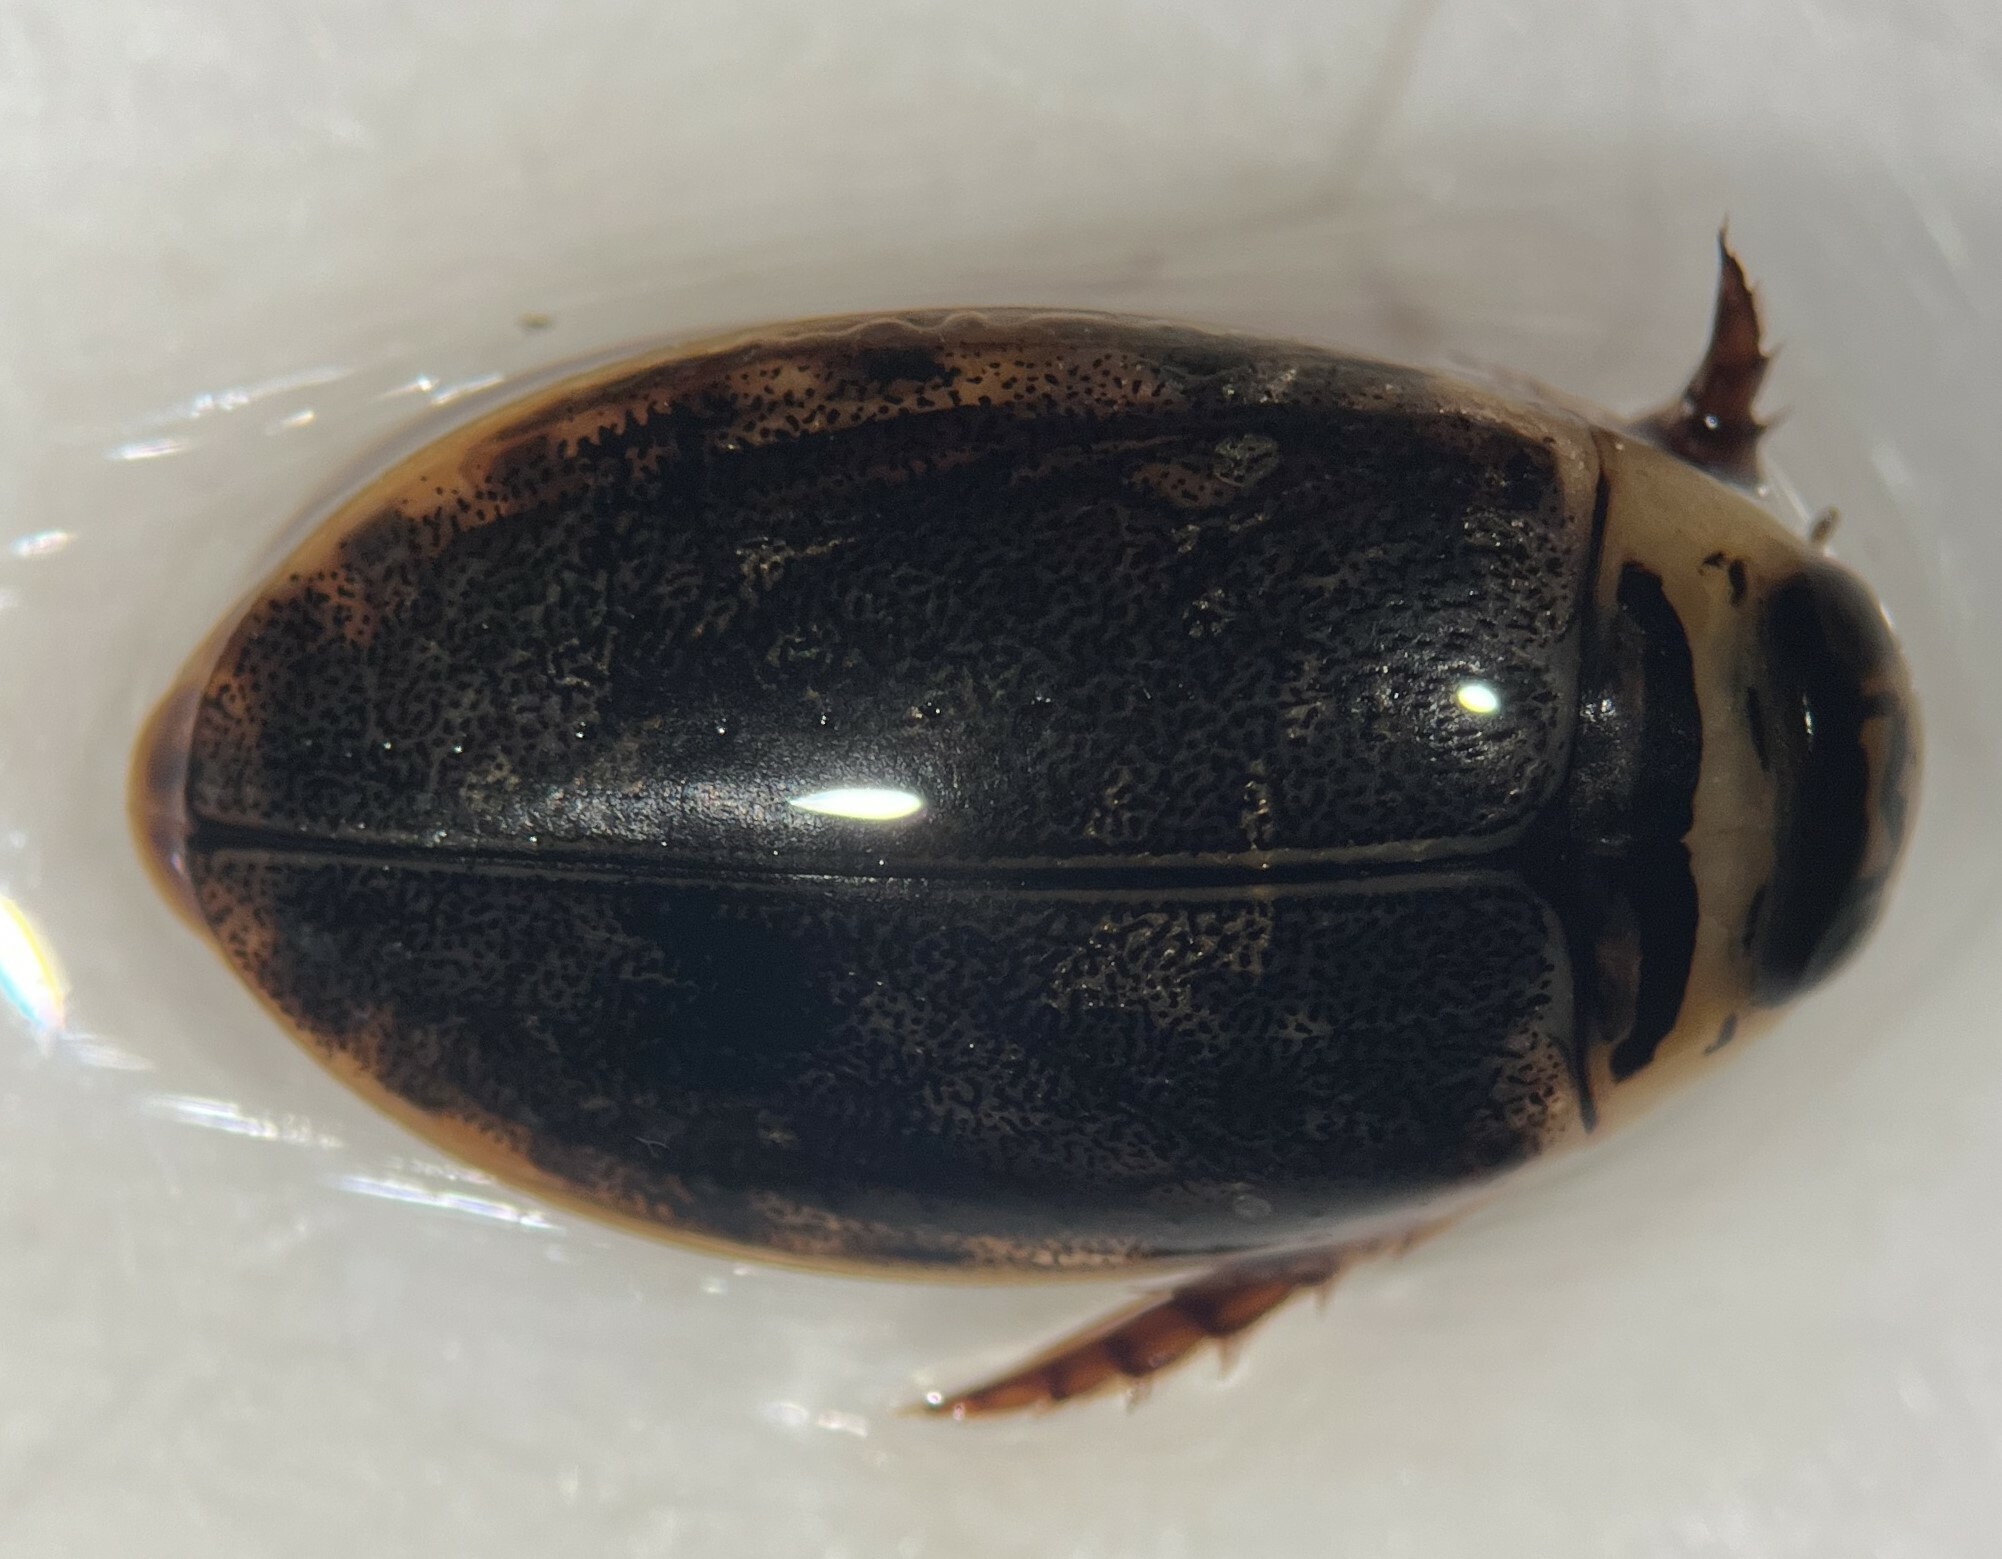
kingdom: Animalia
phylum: Arthropoda
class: Insecta
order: Coleoptera
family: Dytiscidae
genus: Thermonectus
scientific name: Thermonectus nigrofasciatus
